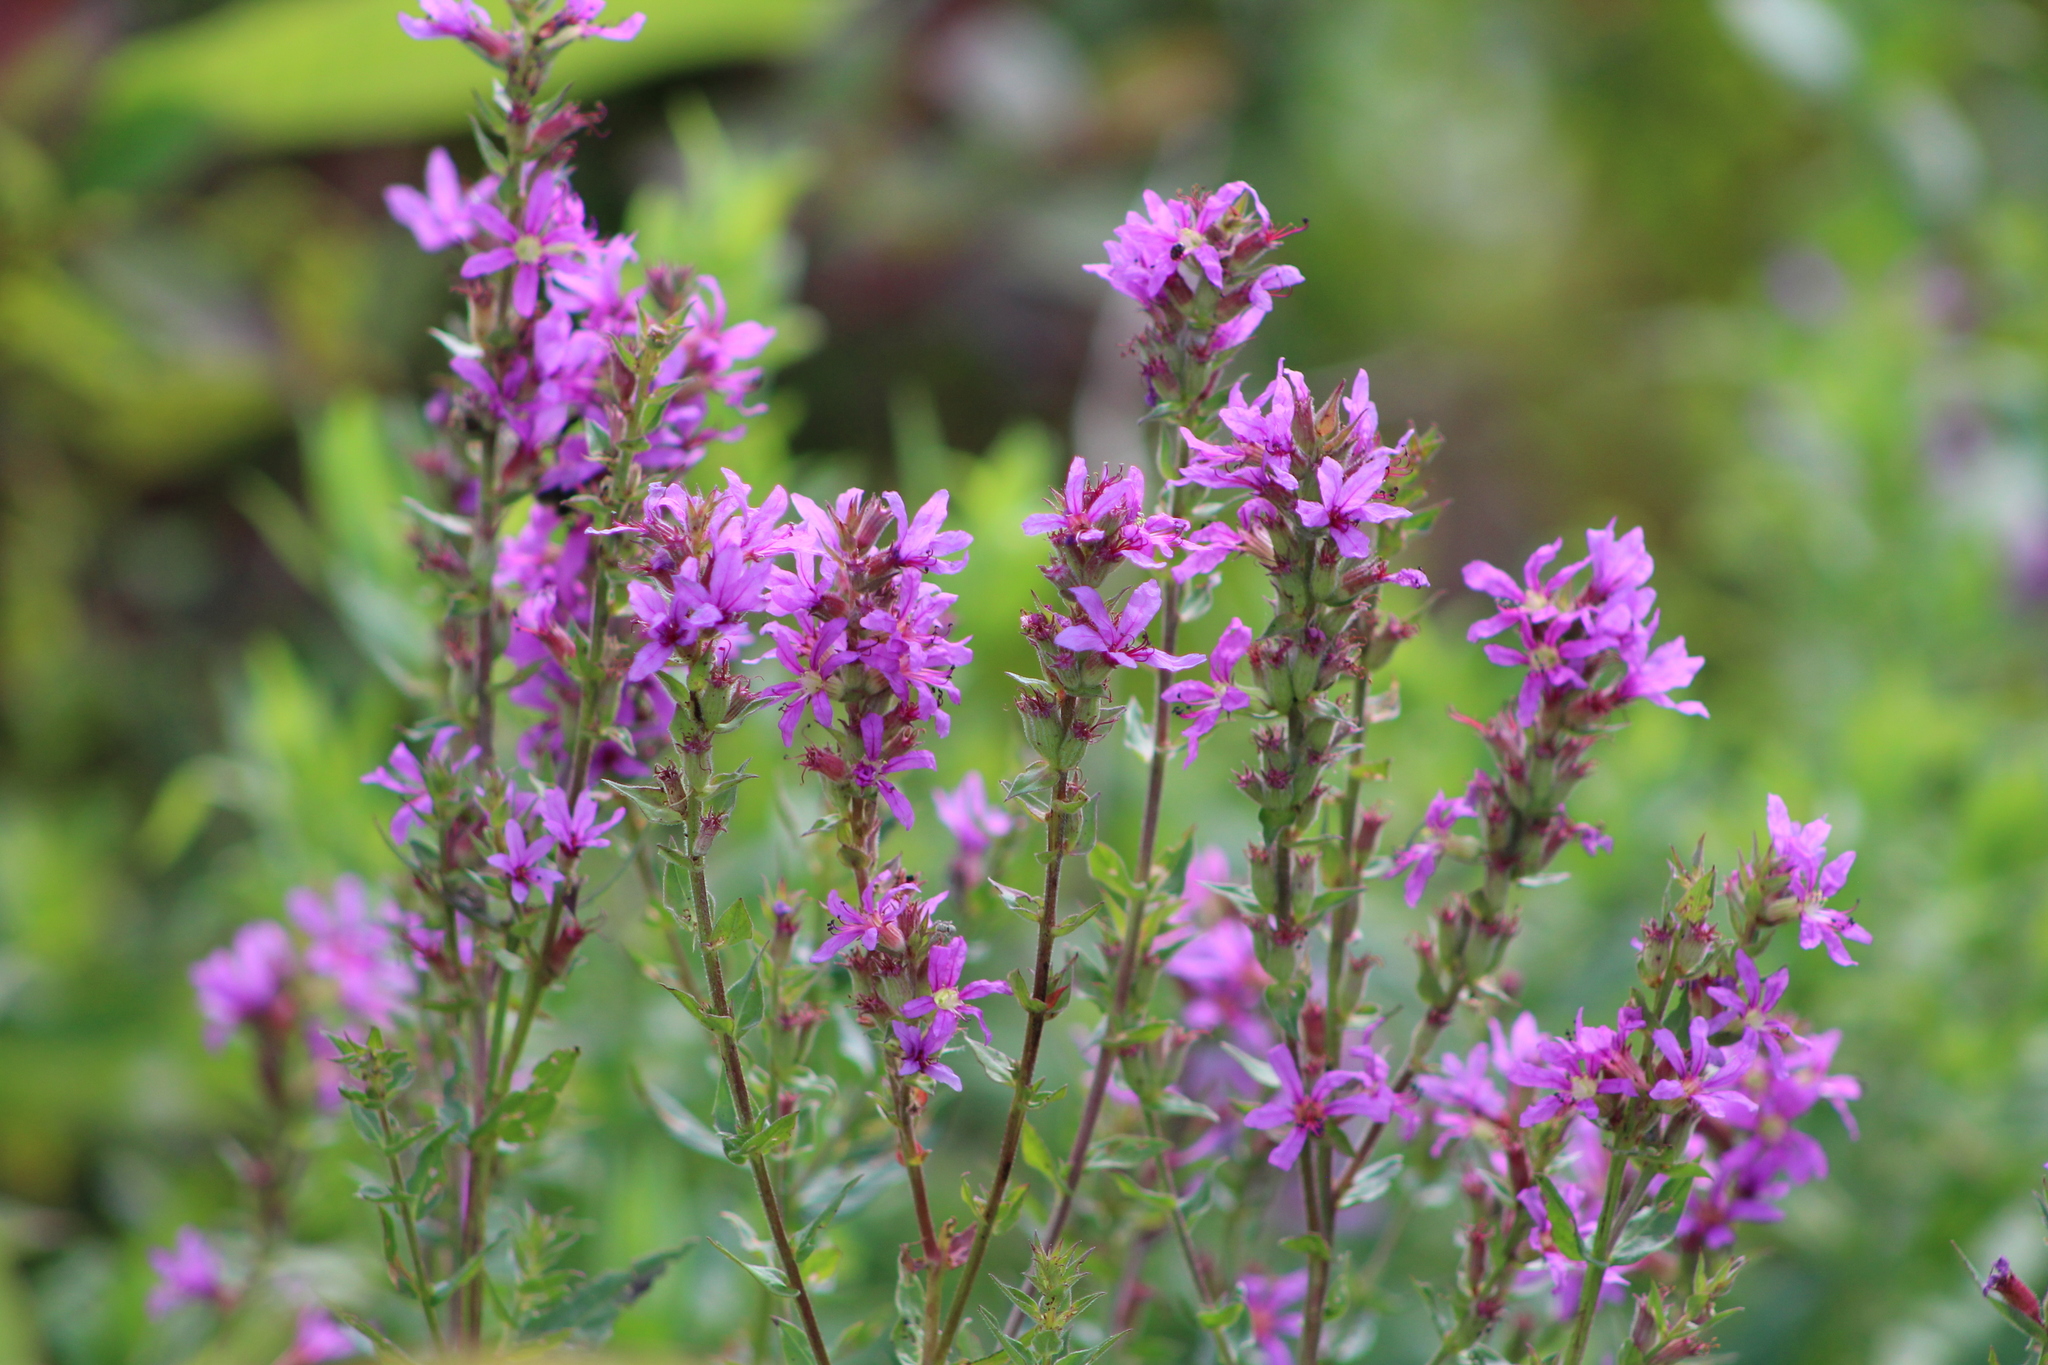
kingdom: Plantae
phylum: Tracheophyta
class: Magnoliopsida
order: Myrtales
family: Lythraceae
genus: Lythrum
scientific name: Lythrum salicaria
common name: Purple loosestrife
